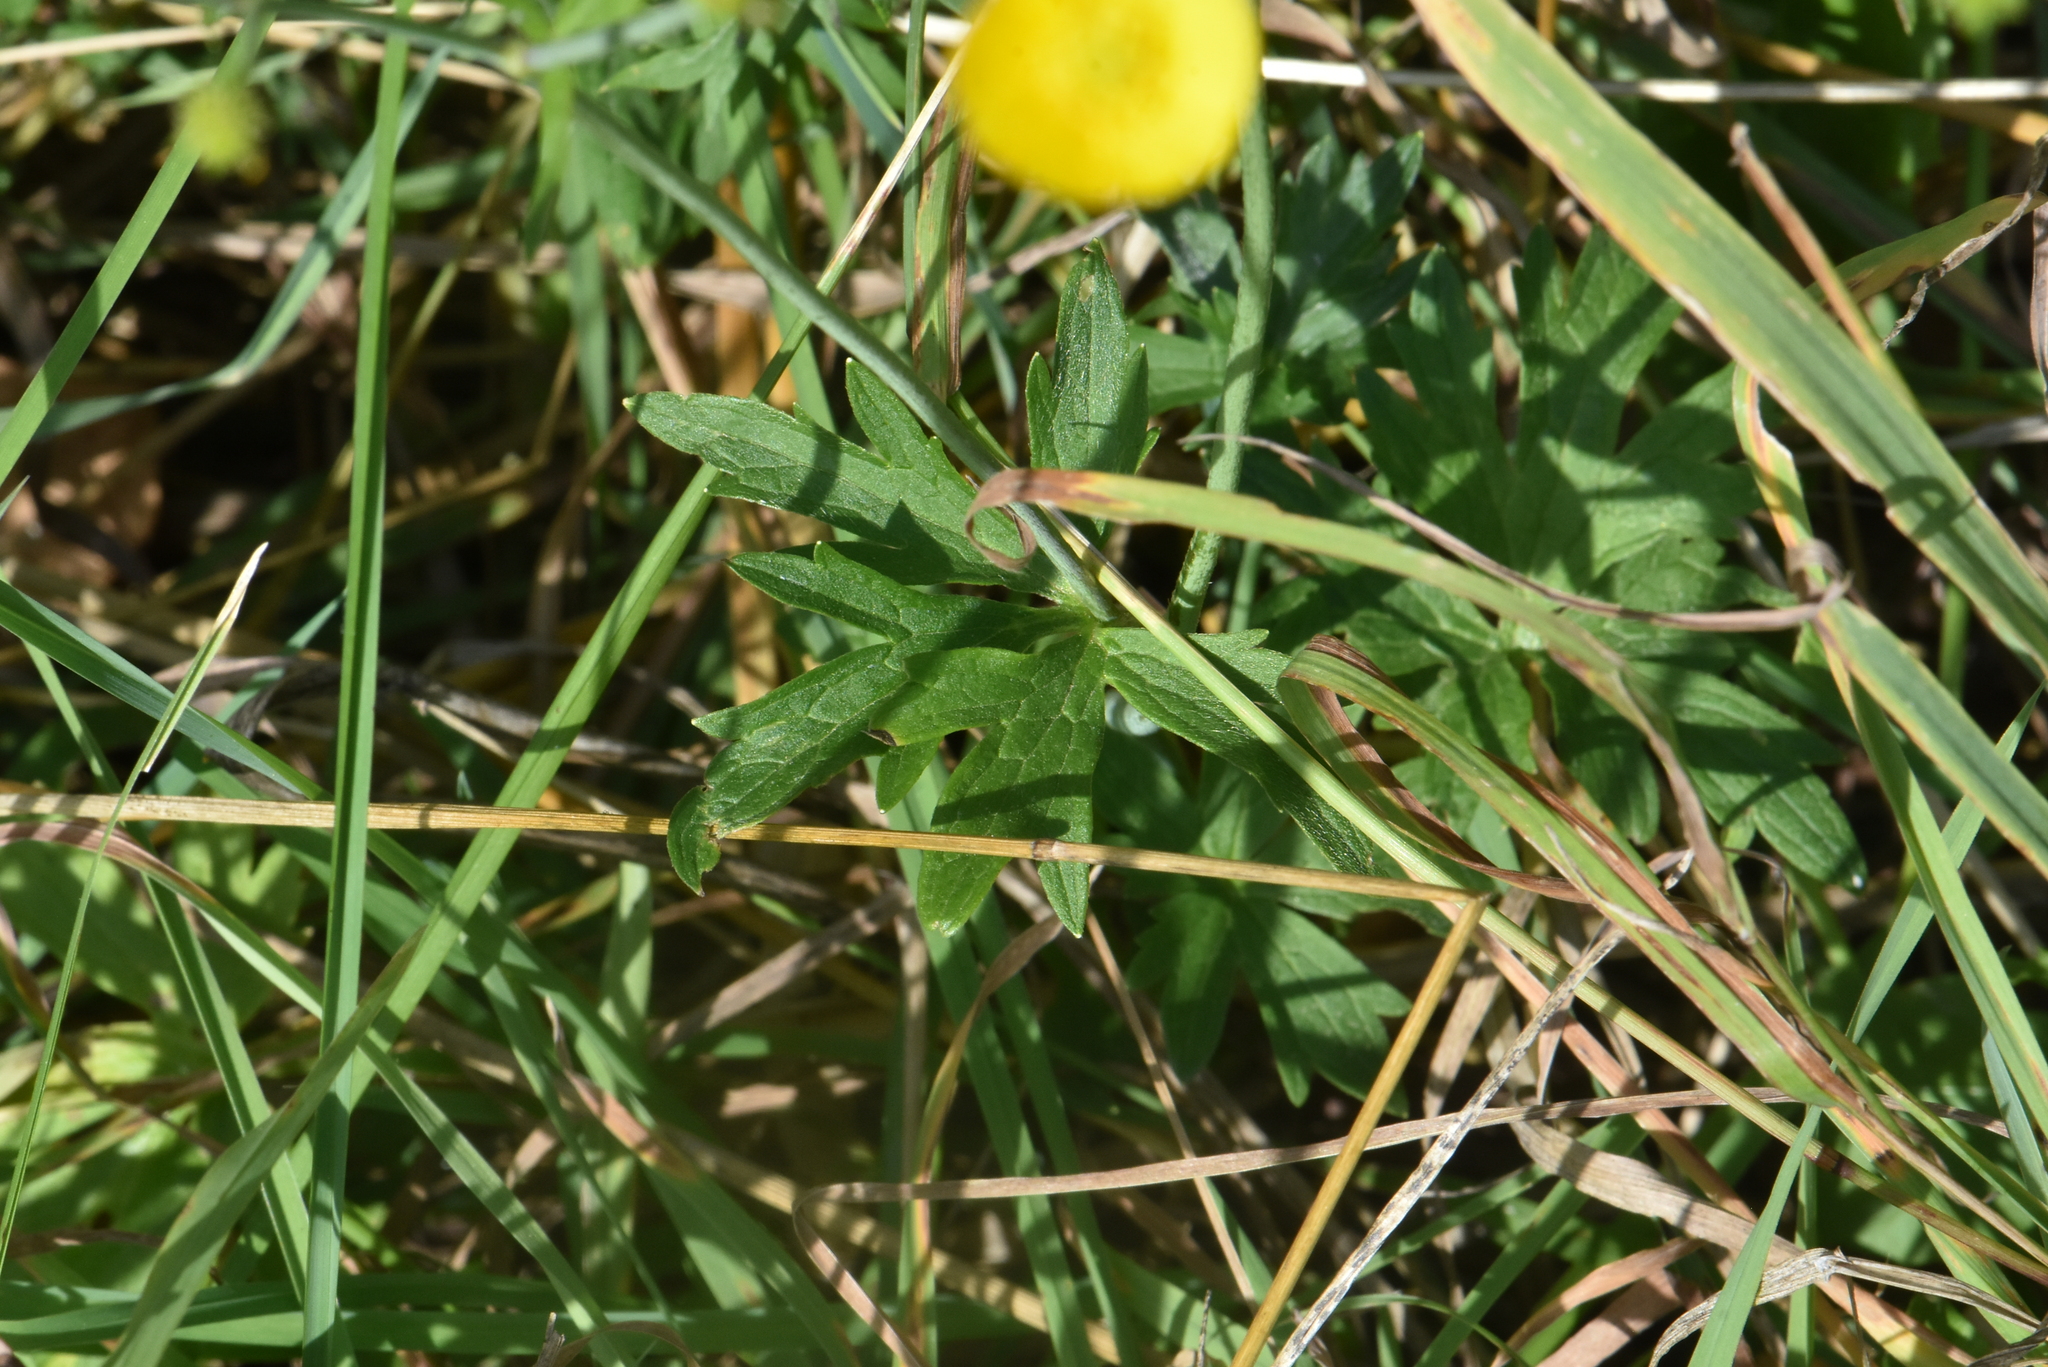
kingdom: Plantae
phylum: Tracheophyta
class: Magnoliopsida
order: Ranunculales
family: Ranunculaceae
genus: Ranunculus
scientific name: Ranunculus acris
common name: Meadow buttercup
